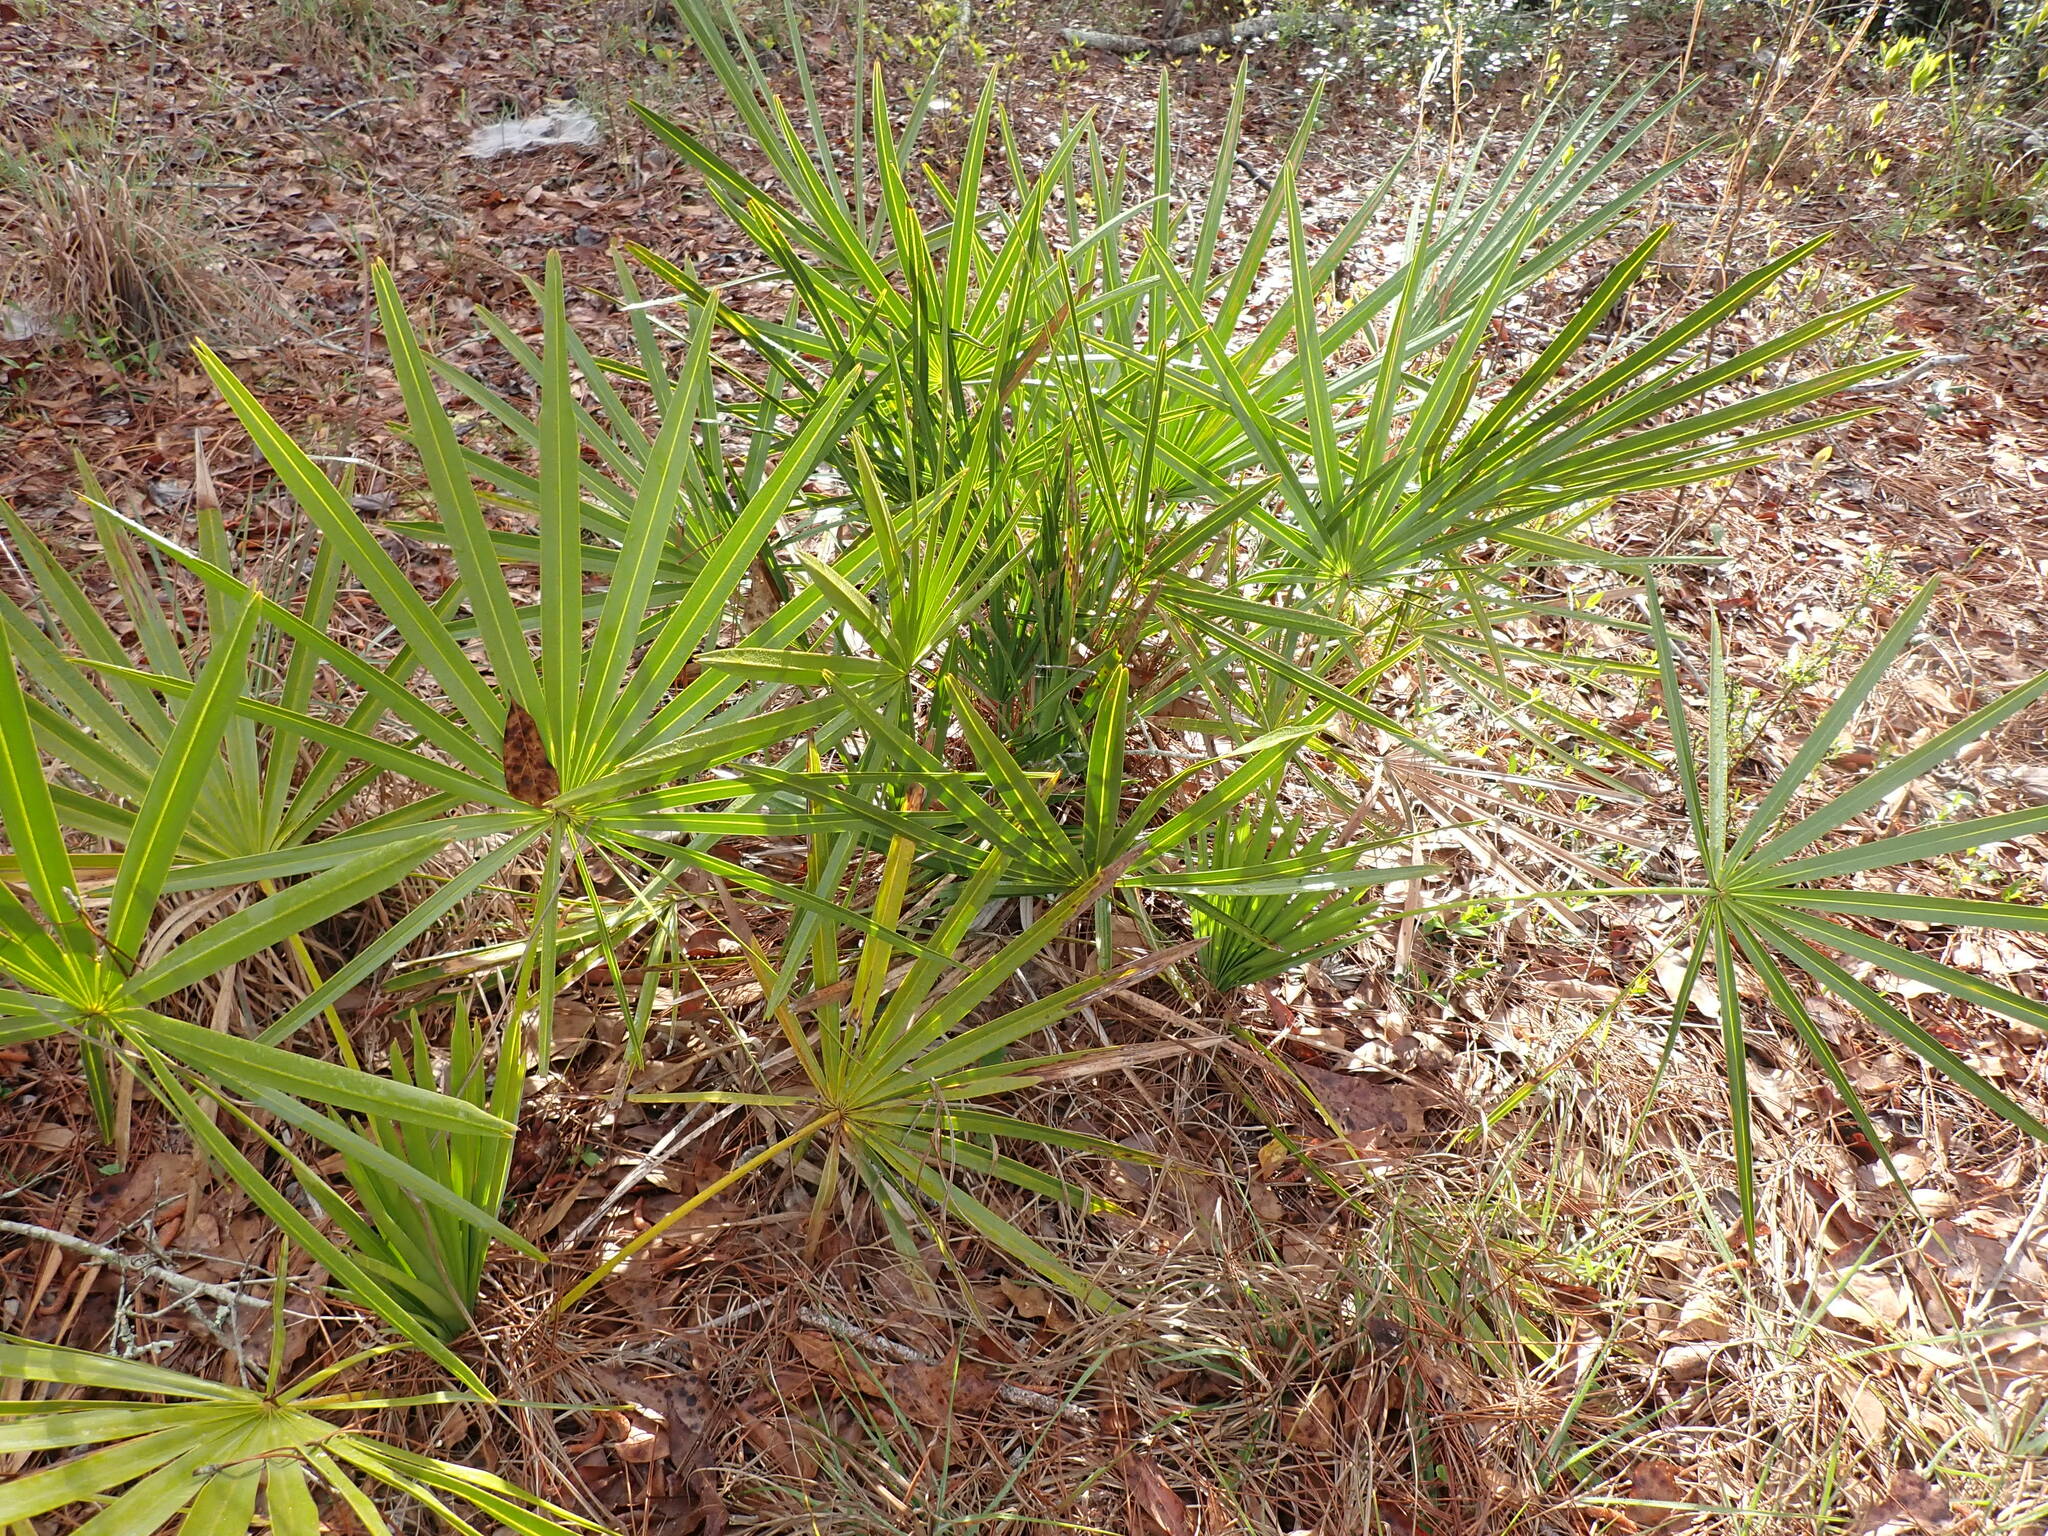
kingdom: Plantae
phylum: Tracheophyta
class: Liliopsida
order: Arecales
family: Arecaceae
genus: Serenoa
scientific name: Serenoa repens
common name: Saw-palmetto
